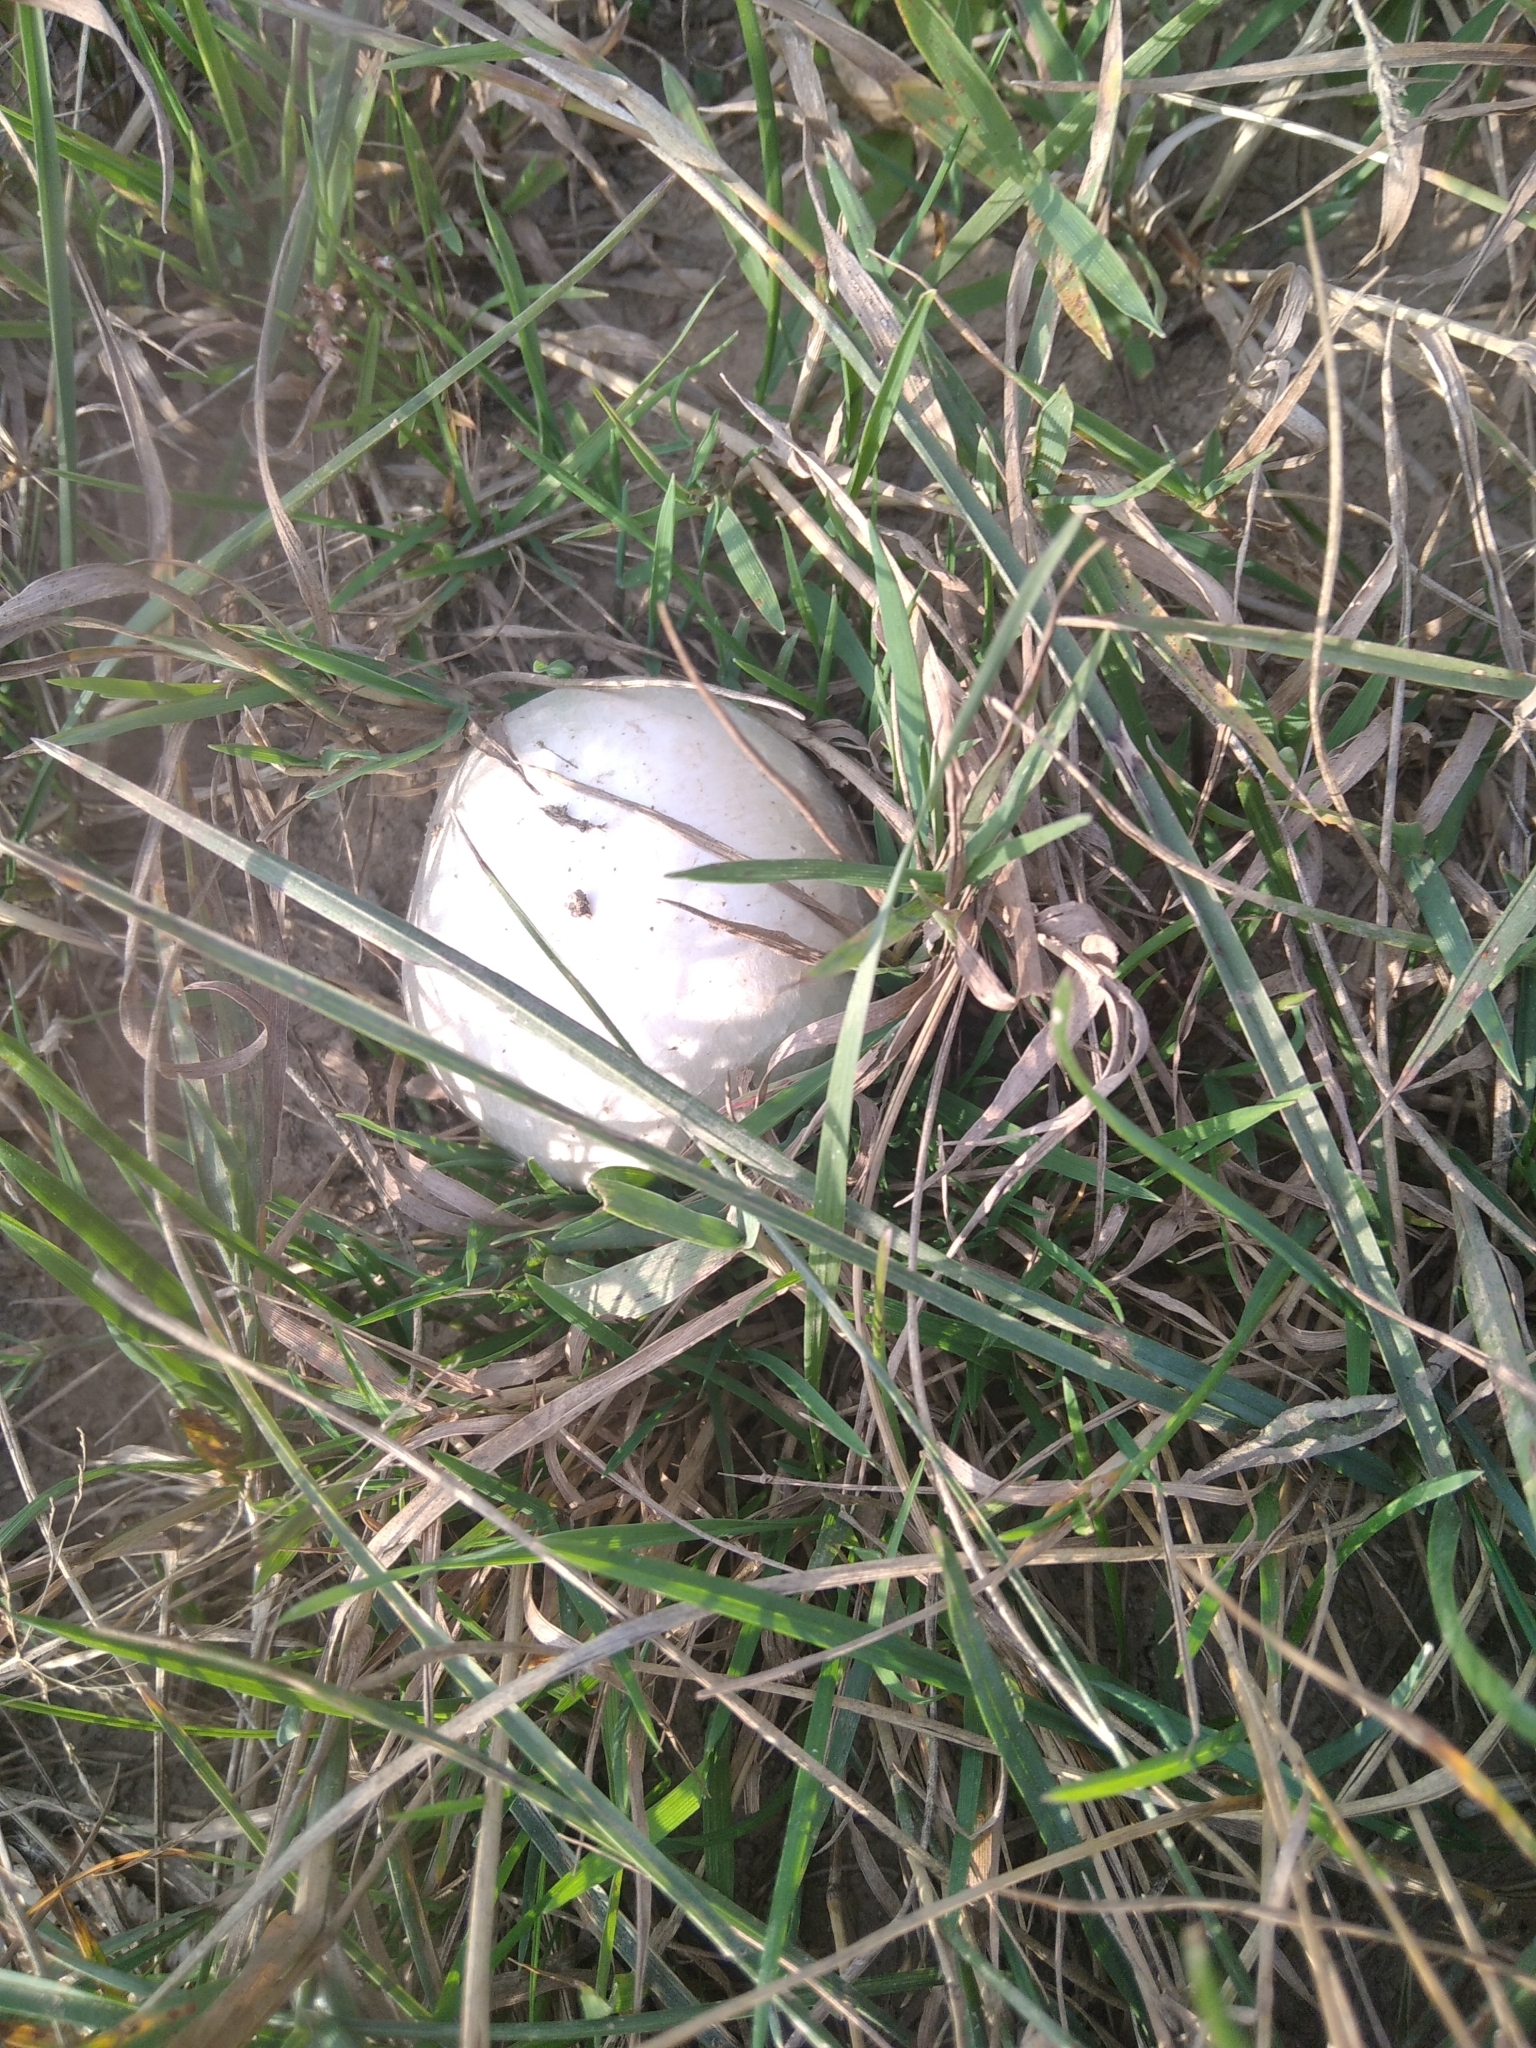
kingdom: Fungi
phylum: Basidiomycota
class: Agaricomycetes
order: Agaricales
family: Agaricaceae
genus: Agaricus
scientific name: Agaricus campestris
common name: Field mushroom
